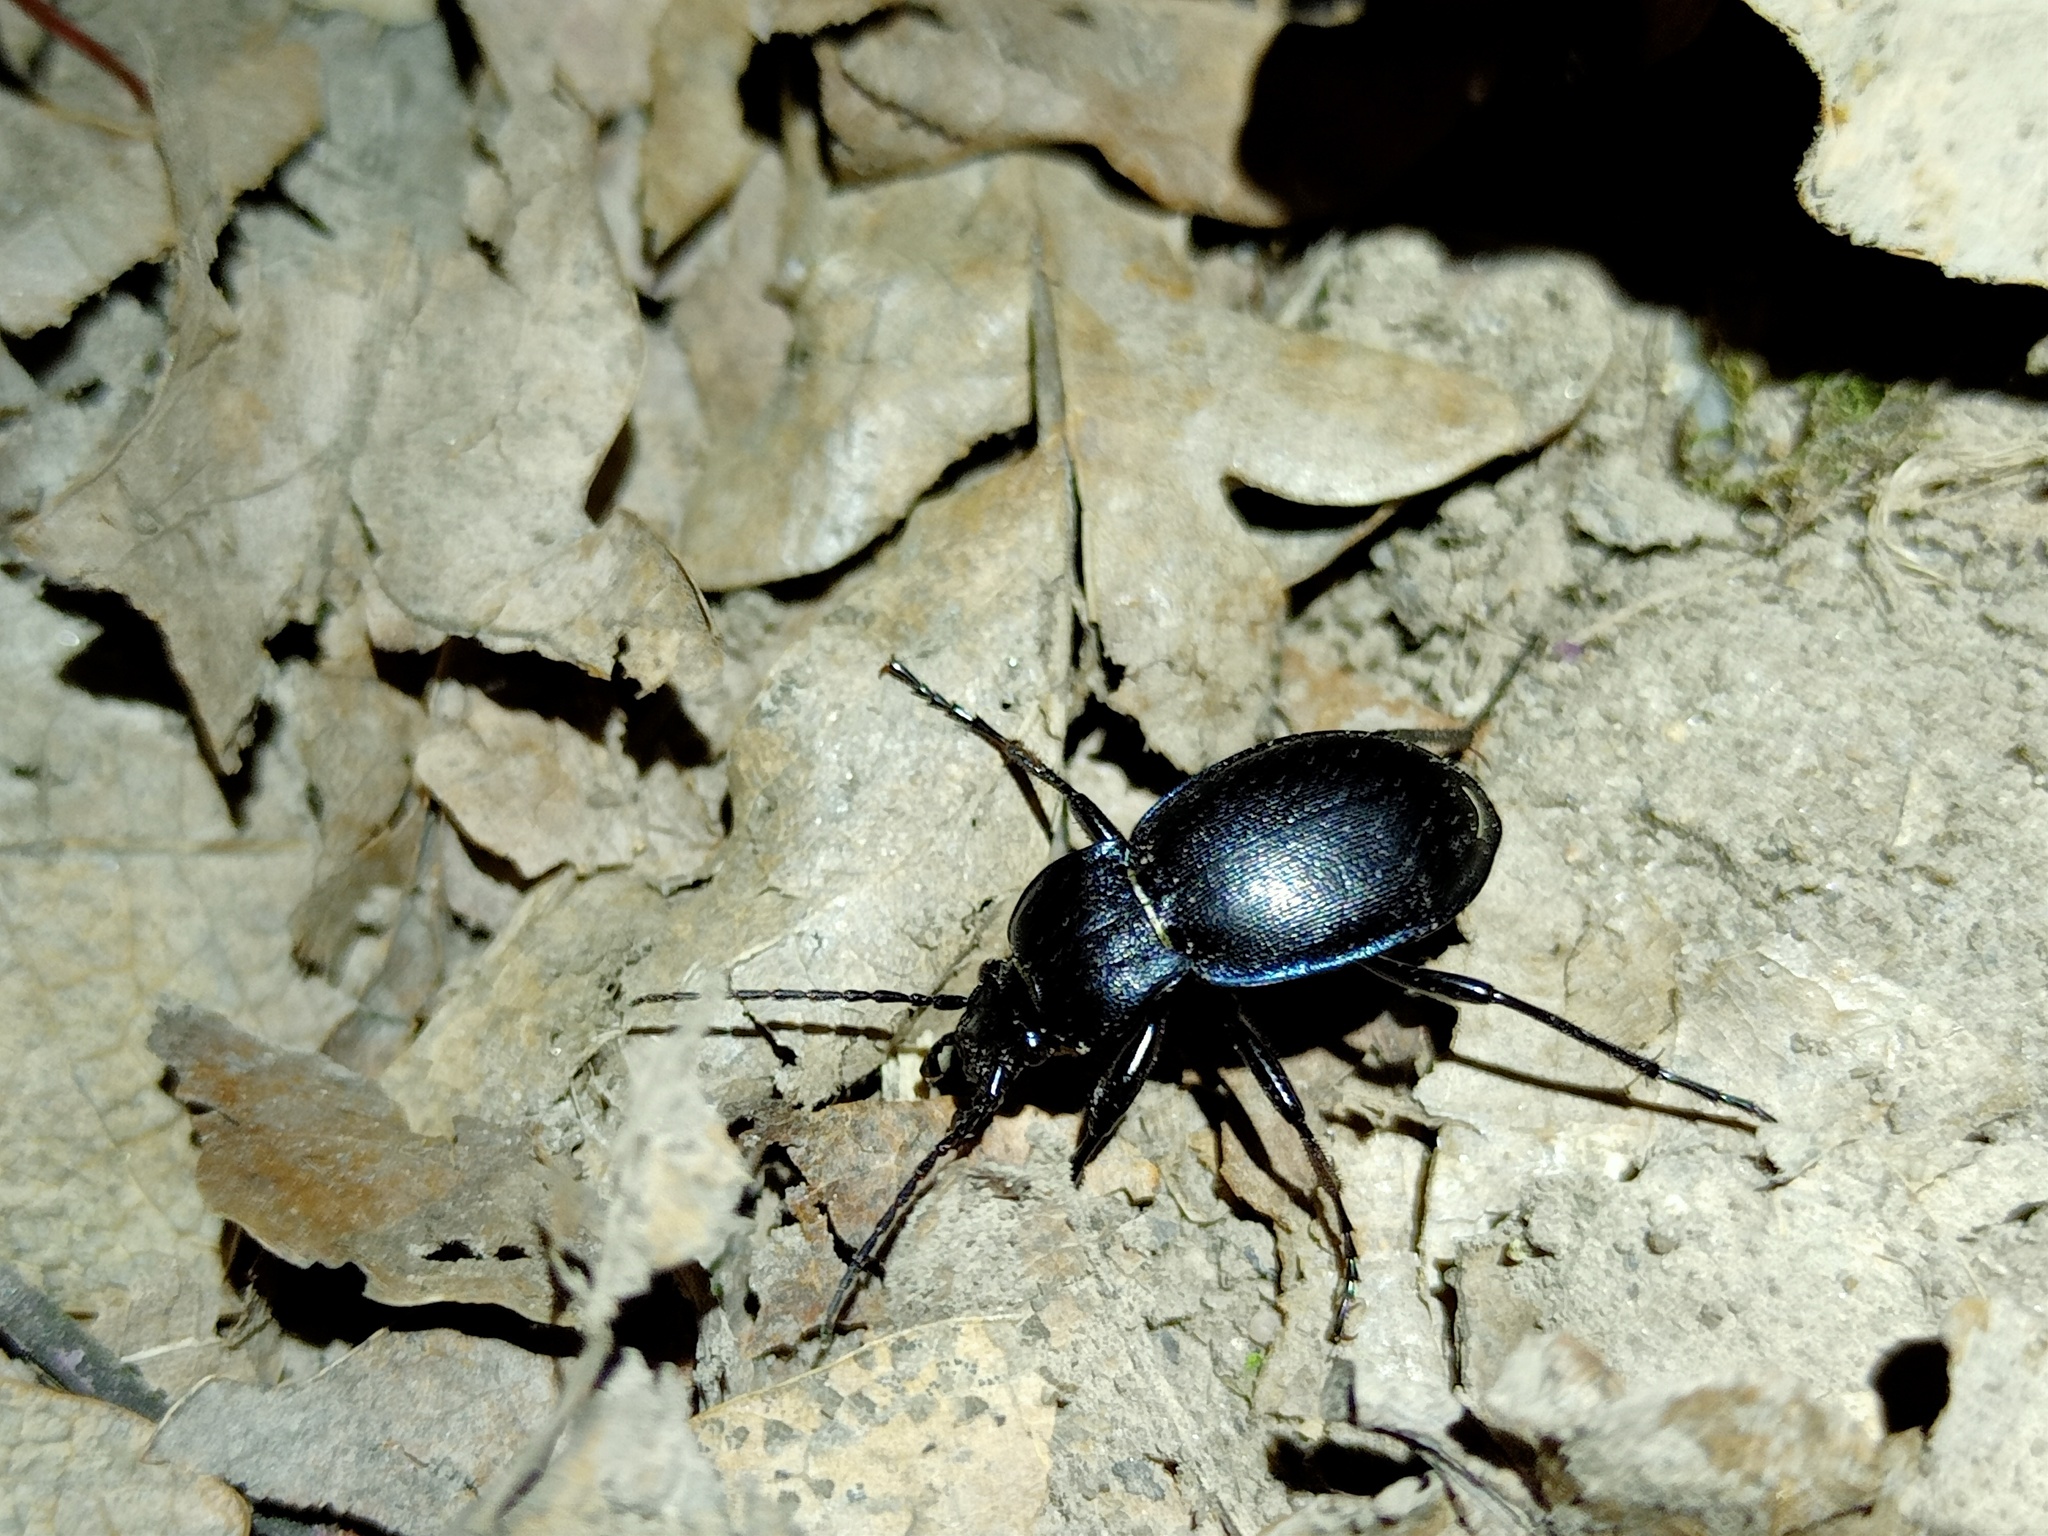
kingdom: Animalia
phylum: Arthropoda
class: Insecta
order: Coleoptera
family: Carabidae
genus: Carabus
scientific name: Carabus convexus
